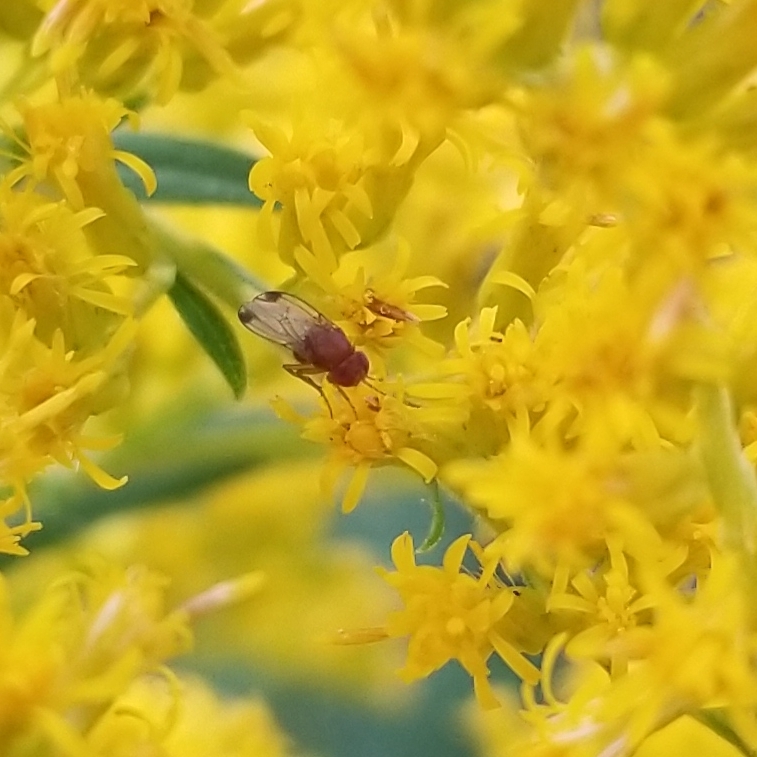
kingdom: Animalia
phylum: Arthropoda
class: Insecta
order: Diptera
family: Drosophilidae
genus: Drosophila
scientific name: Drosophila suzukii
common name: Spotted-wing drosophila
